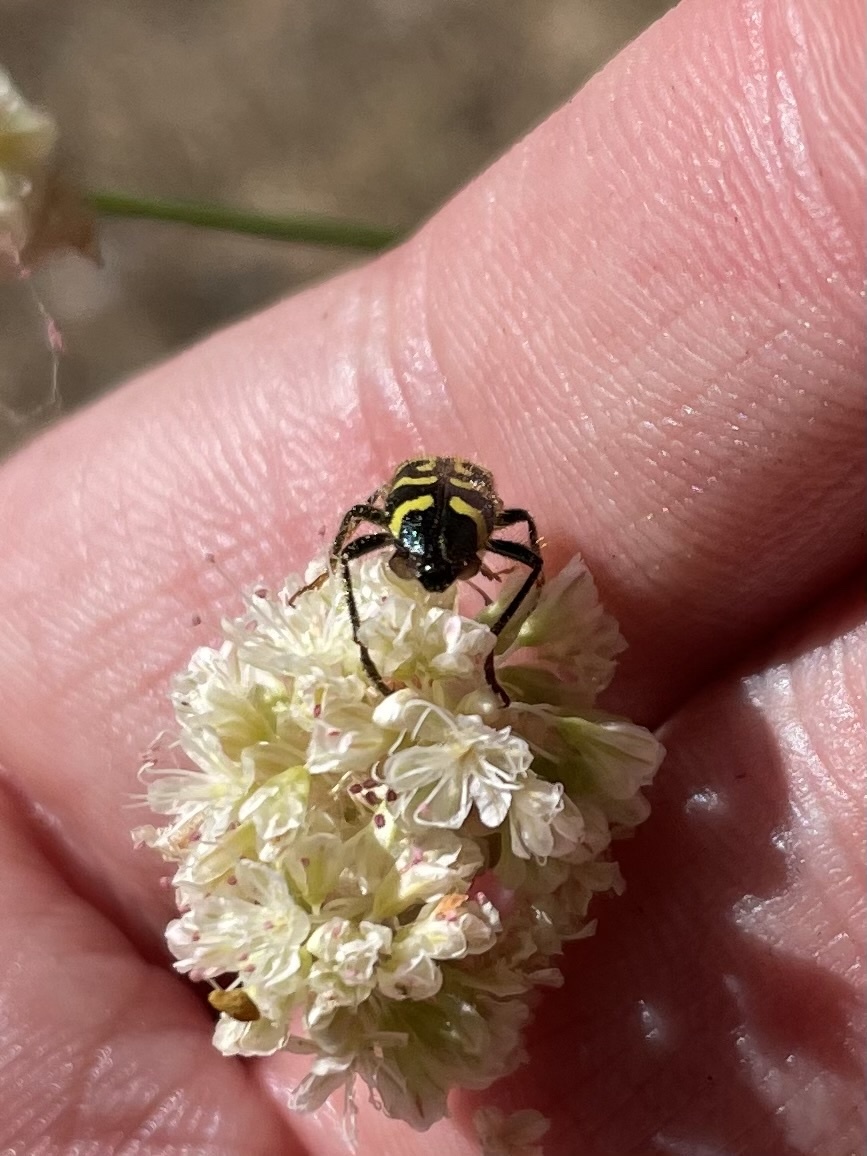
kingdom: Animalia
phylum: Arthropoda
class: Insecta
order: Coleoptera
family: Cleridae
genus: Trichodes
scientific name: Trichodes ornatus
